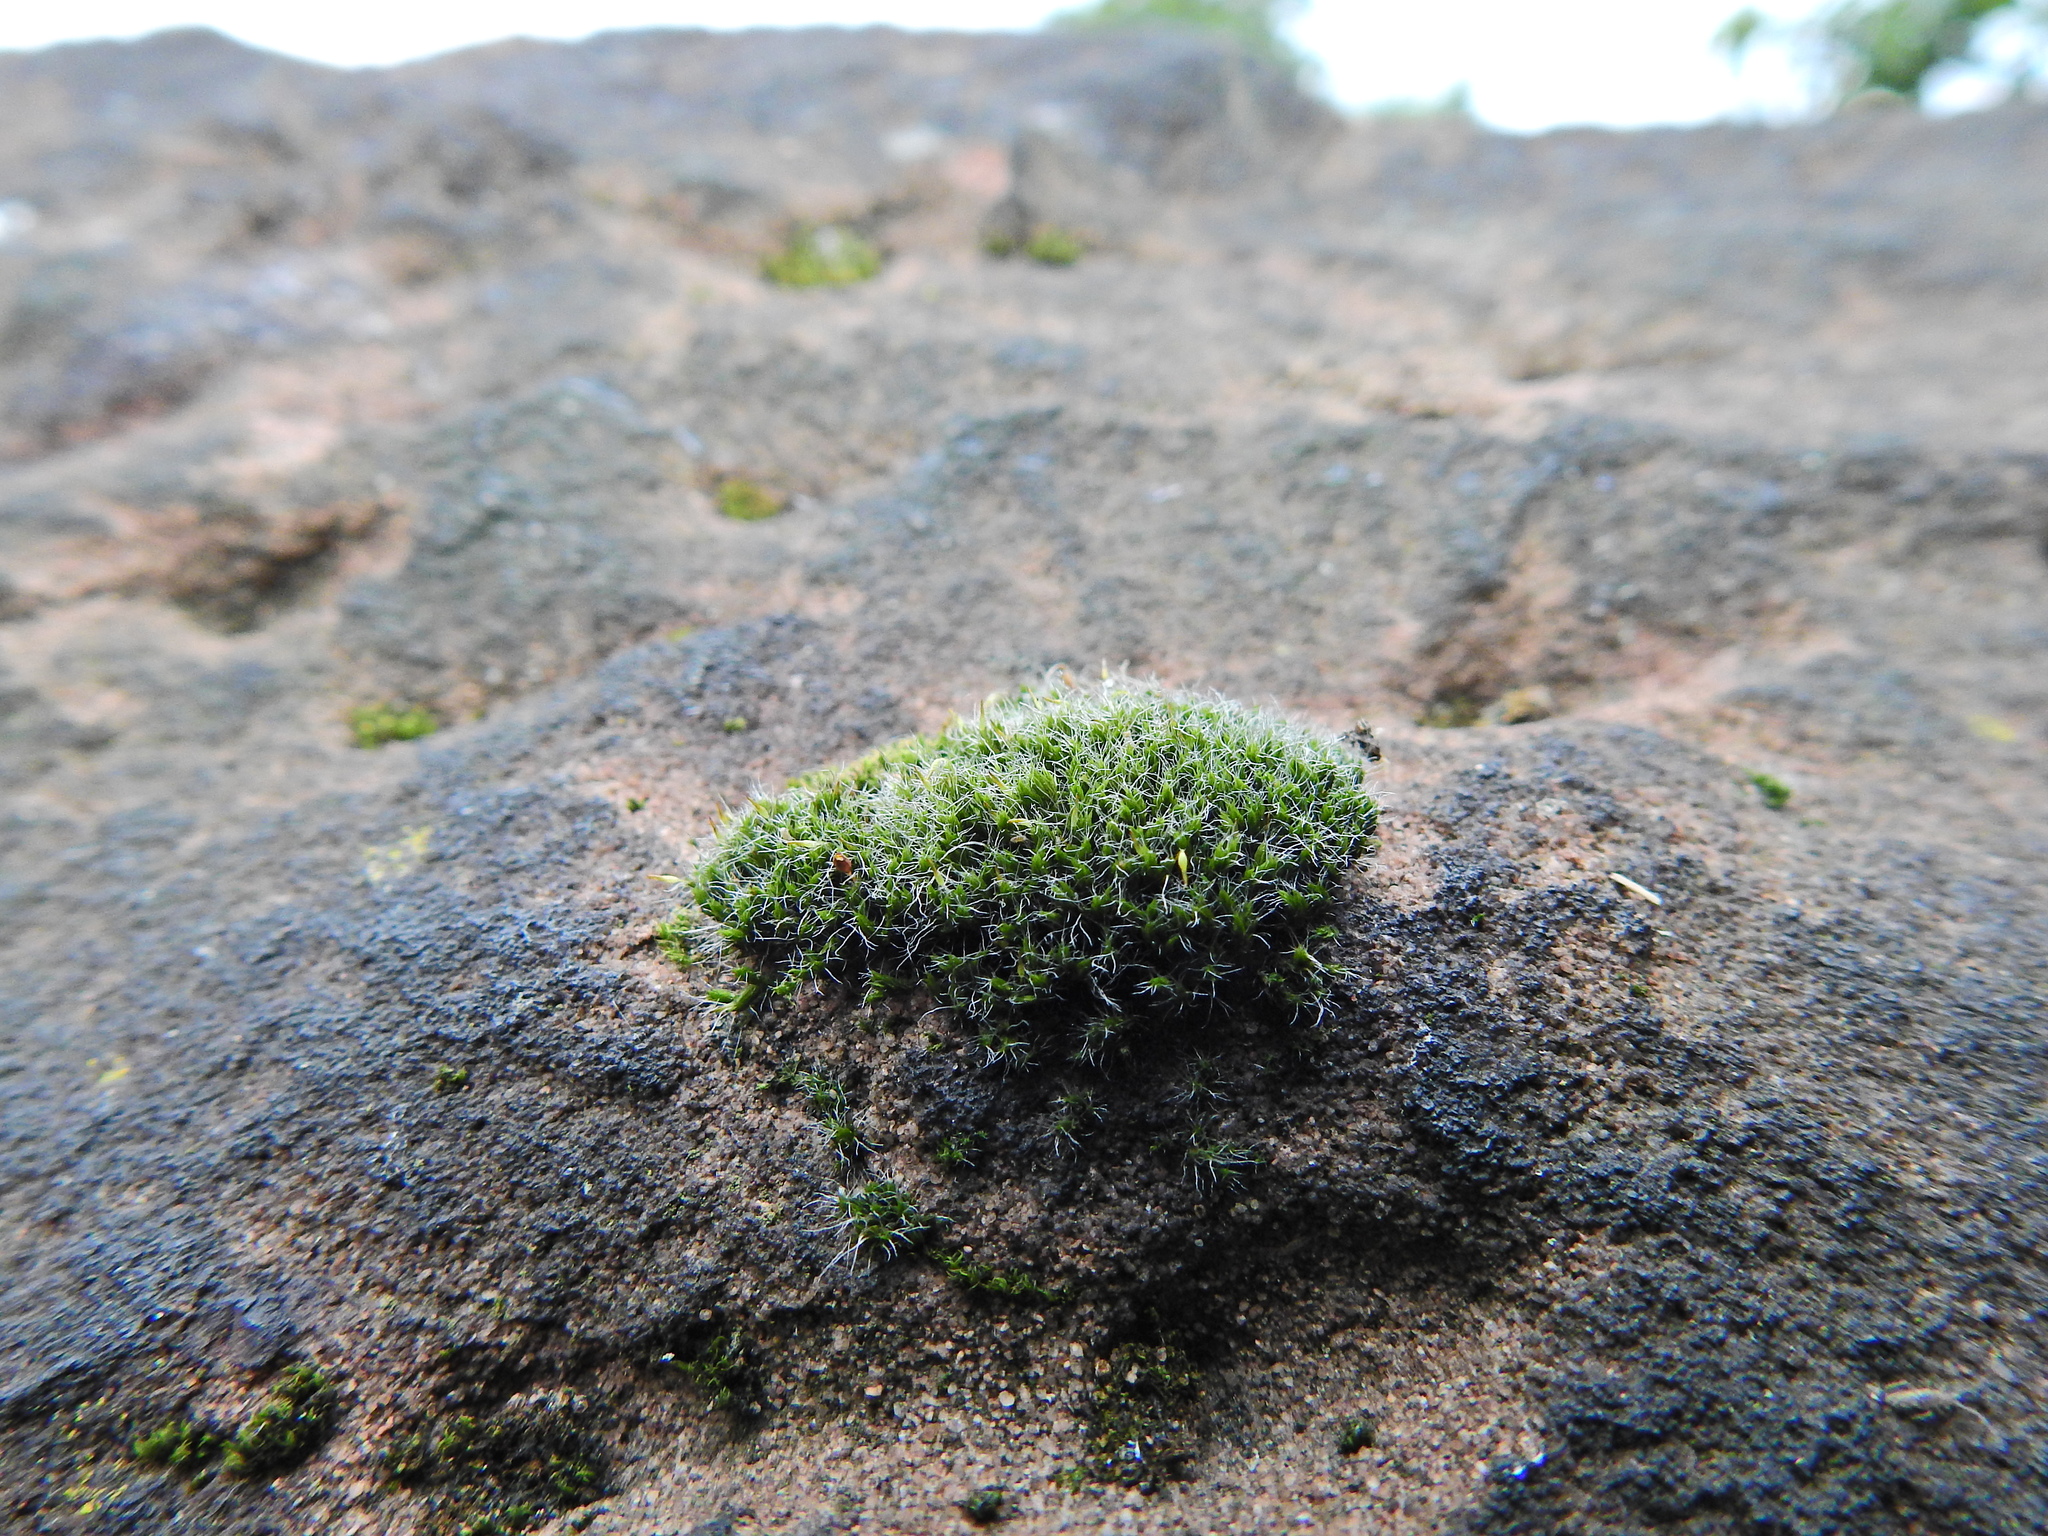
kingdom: Plantae
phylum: Bryophyta
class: Bryopsida
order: Grimmiales
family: Grimmiaceae
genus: Grimmia
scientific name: Grimmia pulvinata
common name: Grey-cushioned grimmia
